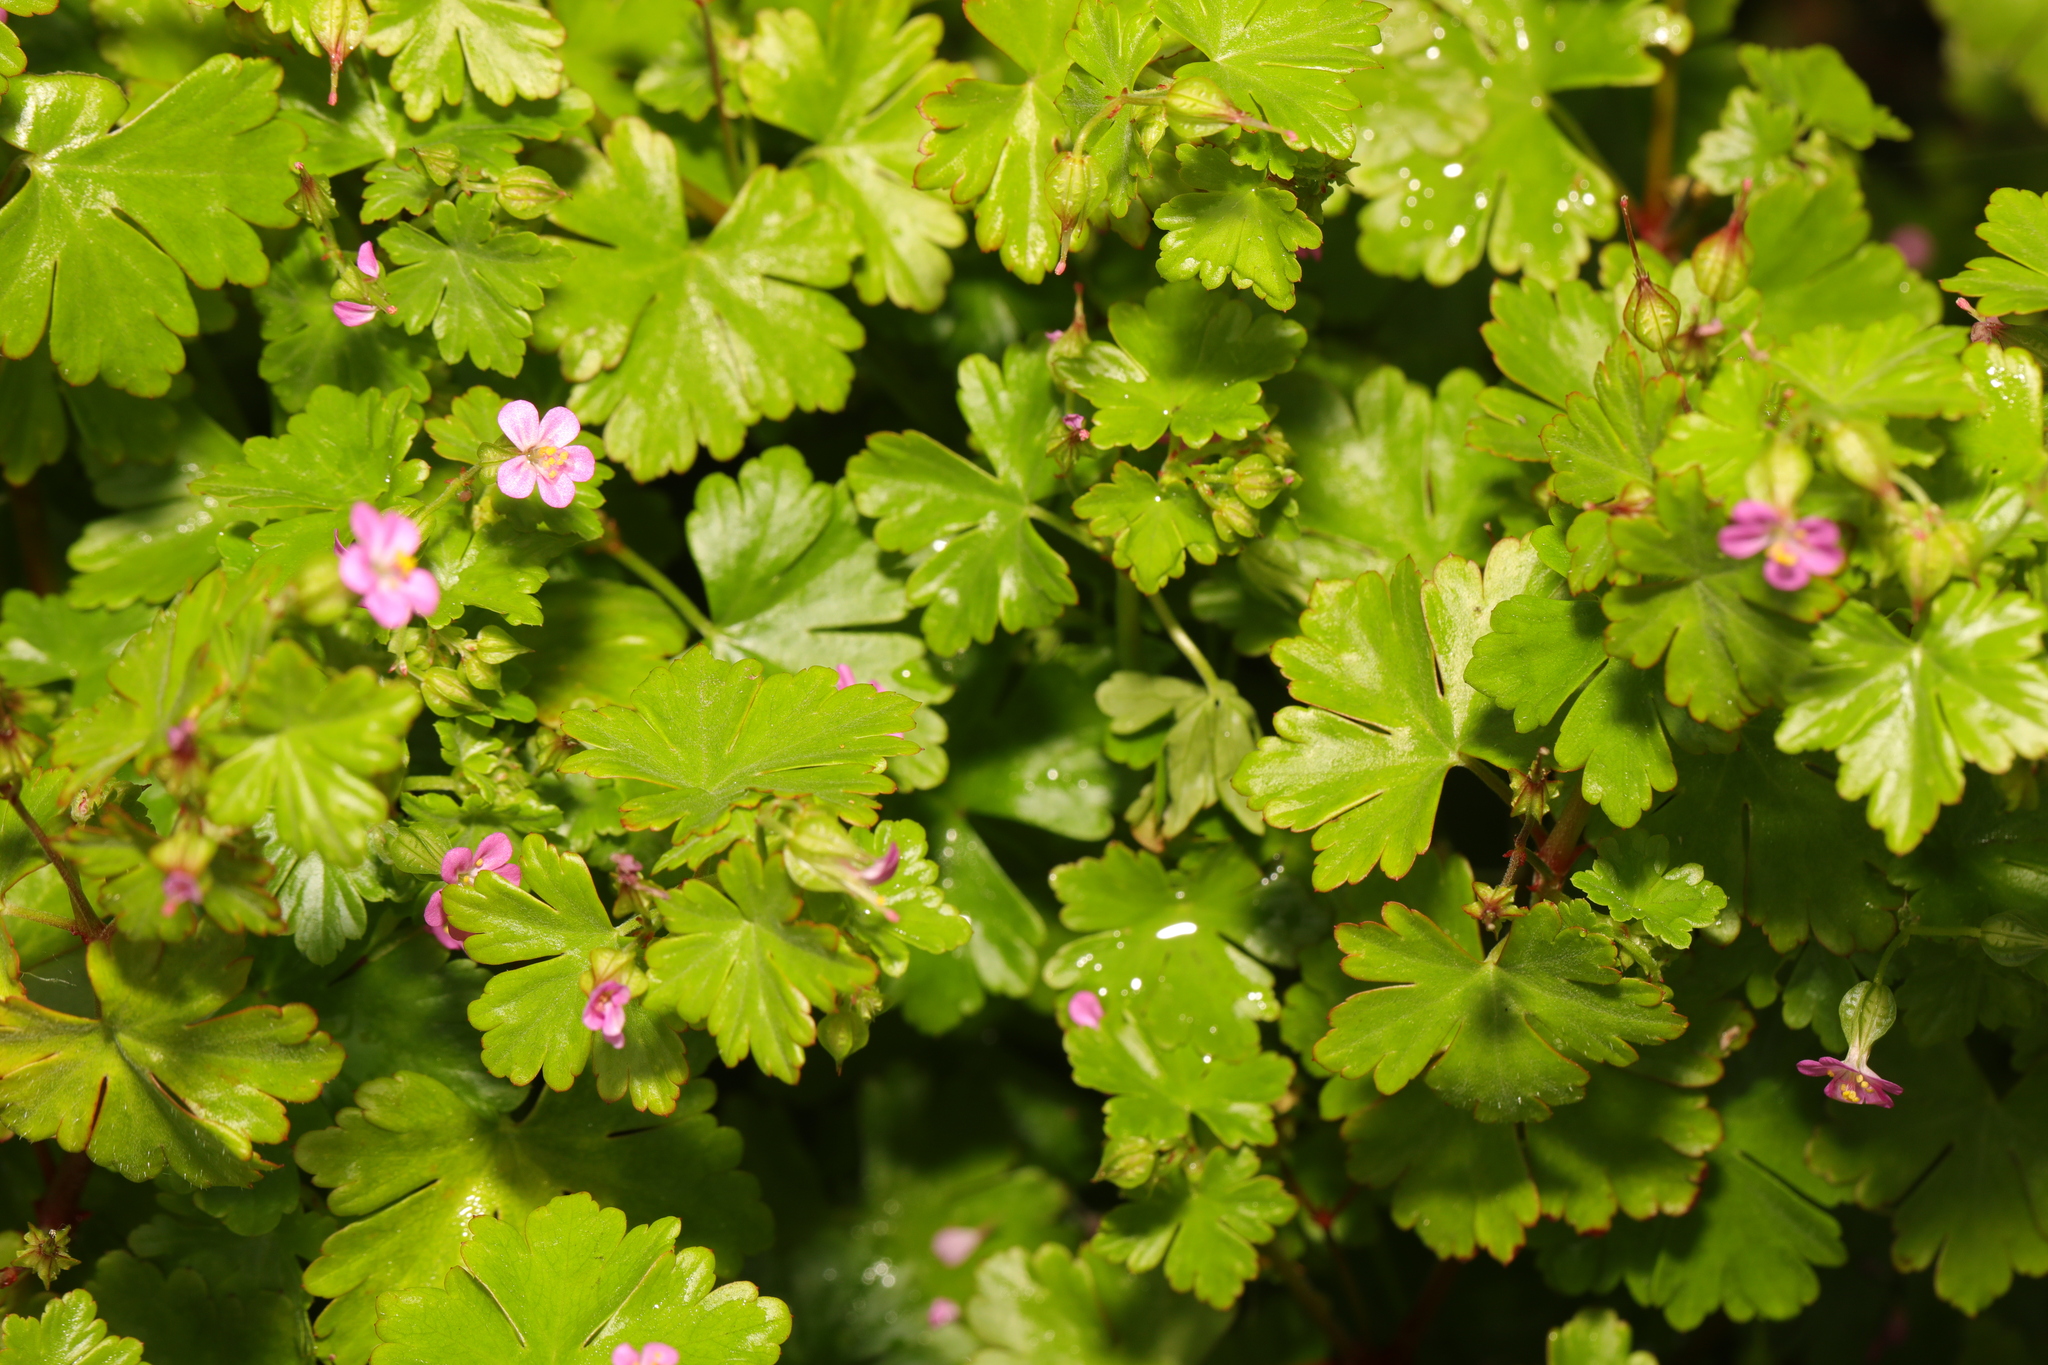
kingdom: Plantae
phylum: Tracheophyta
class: Magnoliopsida
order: Geraniales
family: Geraniaceae
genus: Geranium
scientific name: Geranium lucidum
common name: Shining crane's-bill
